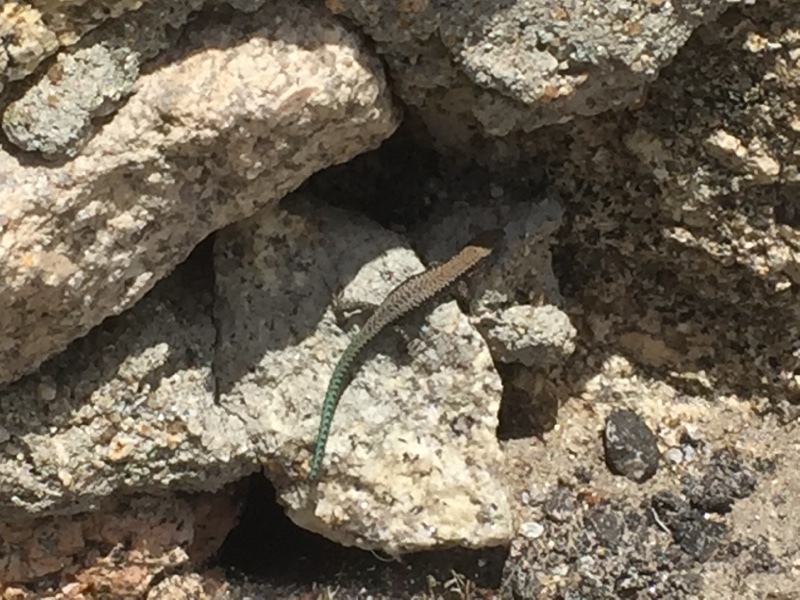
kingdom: Animalia
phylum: Chordata
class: Squamata
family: Lacertidae
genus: Iberolacerta
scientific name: Iberolacerta monticola
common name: Iberian mountain lizard
